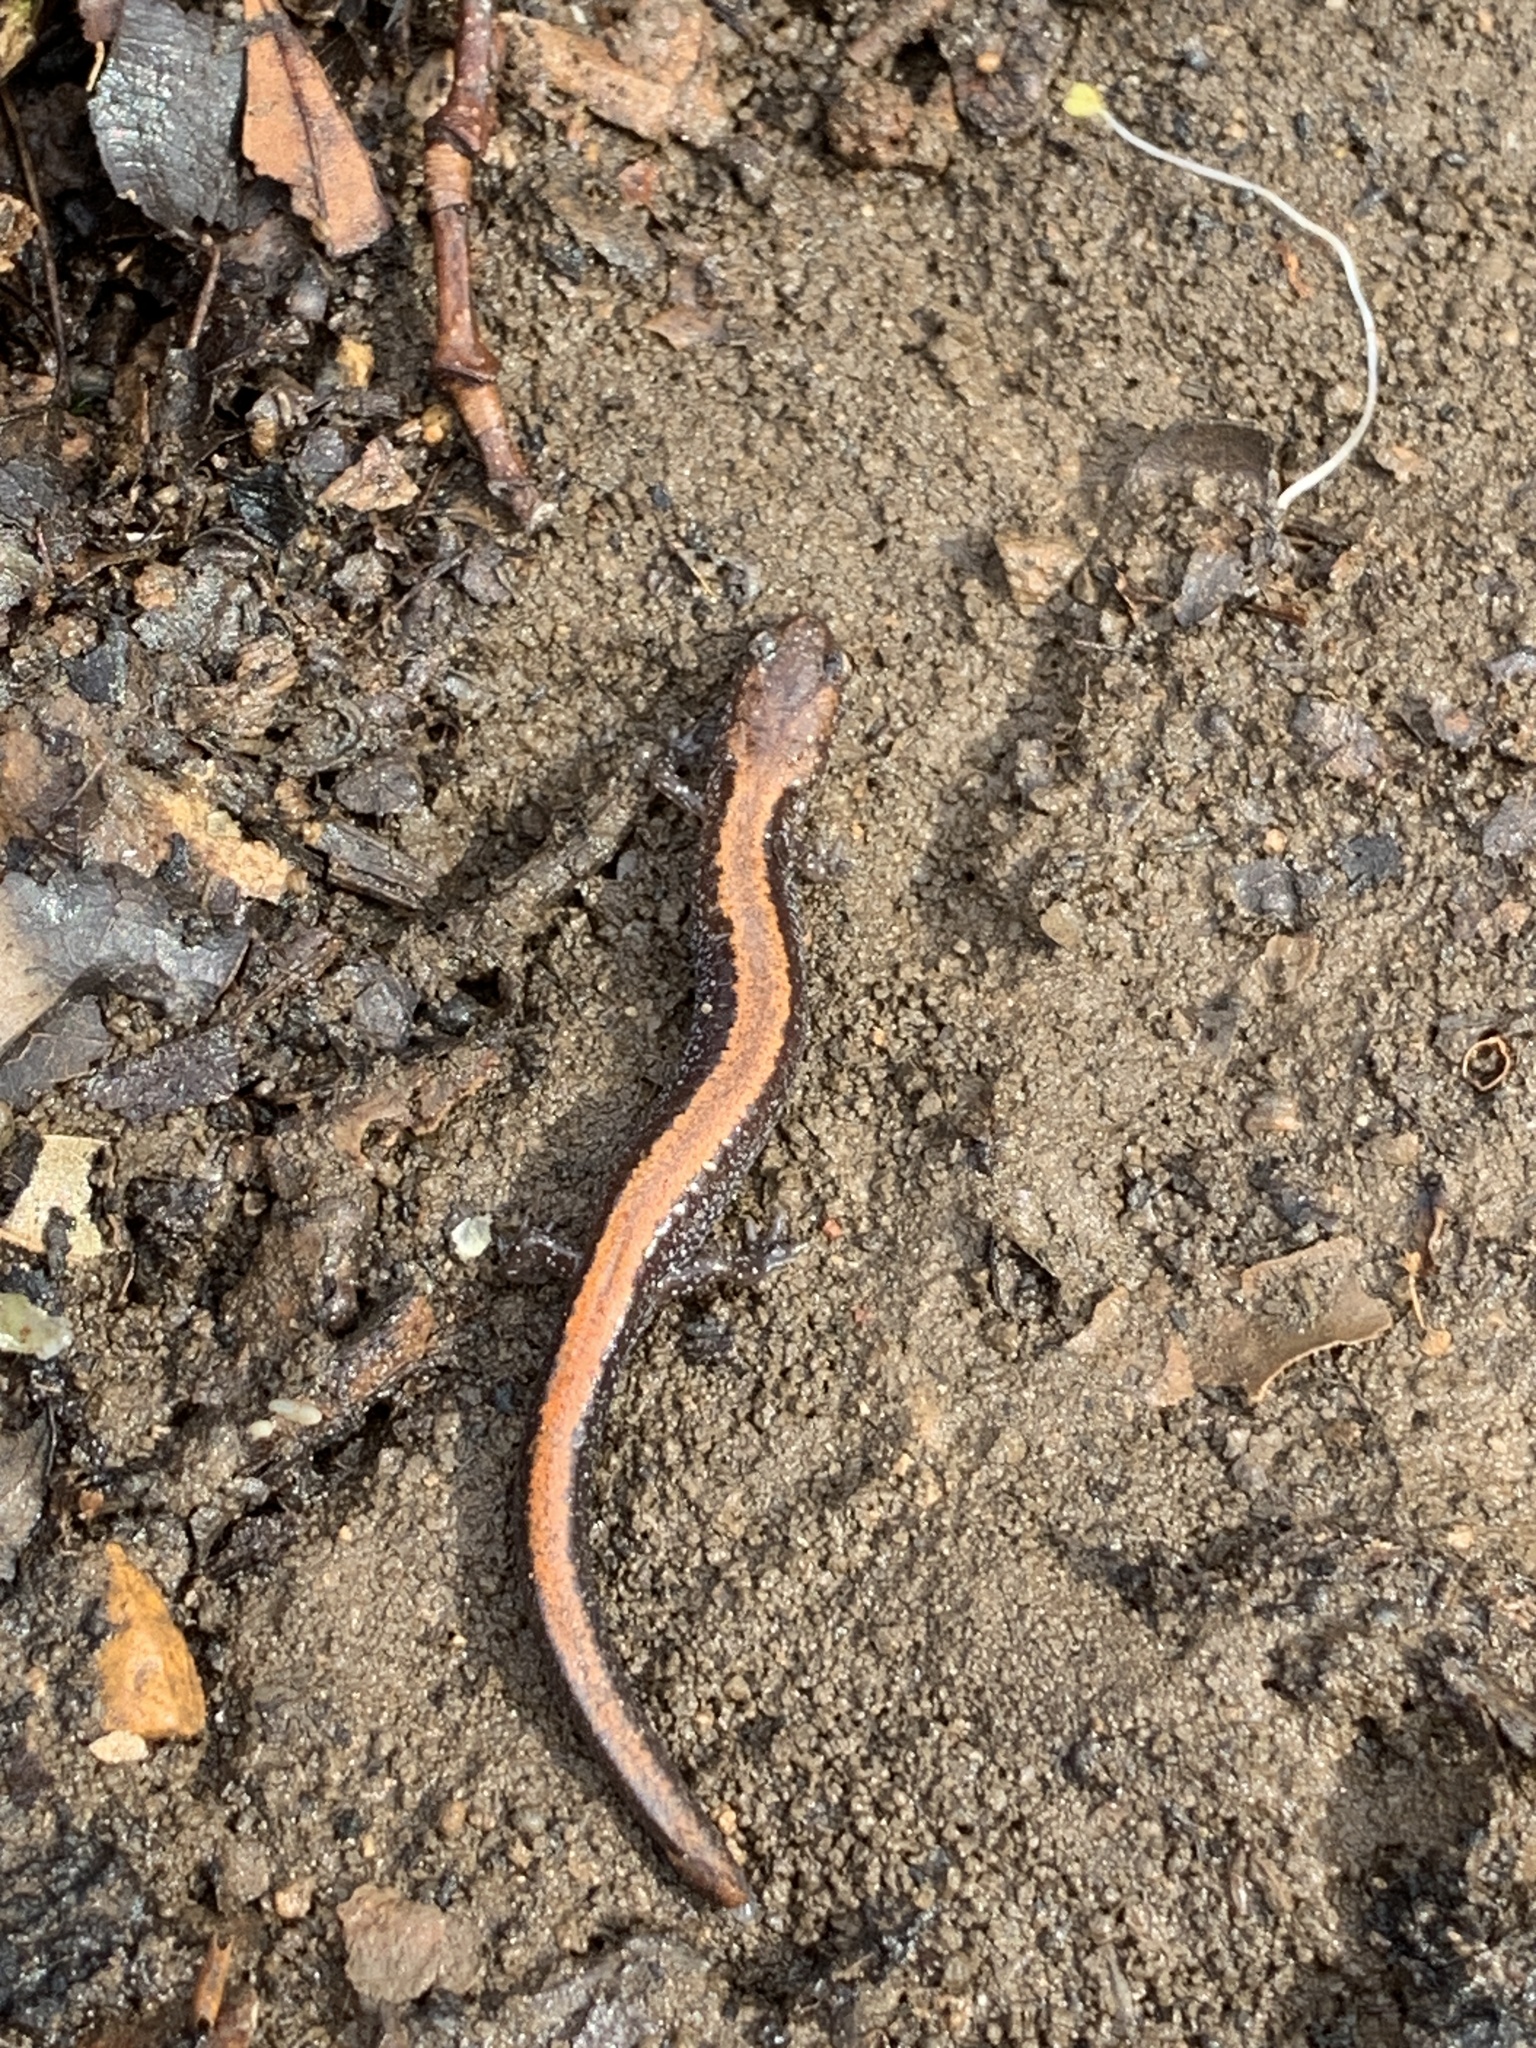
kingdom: Animalia
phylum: Chordata
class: Amphibia
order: Caudata
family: Plethodontidae
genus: Plethodon
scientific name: Plethodon cinereus
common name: Redback salamander
